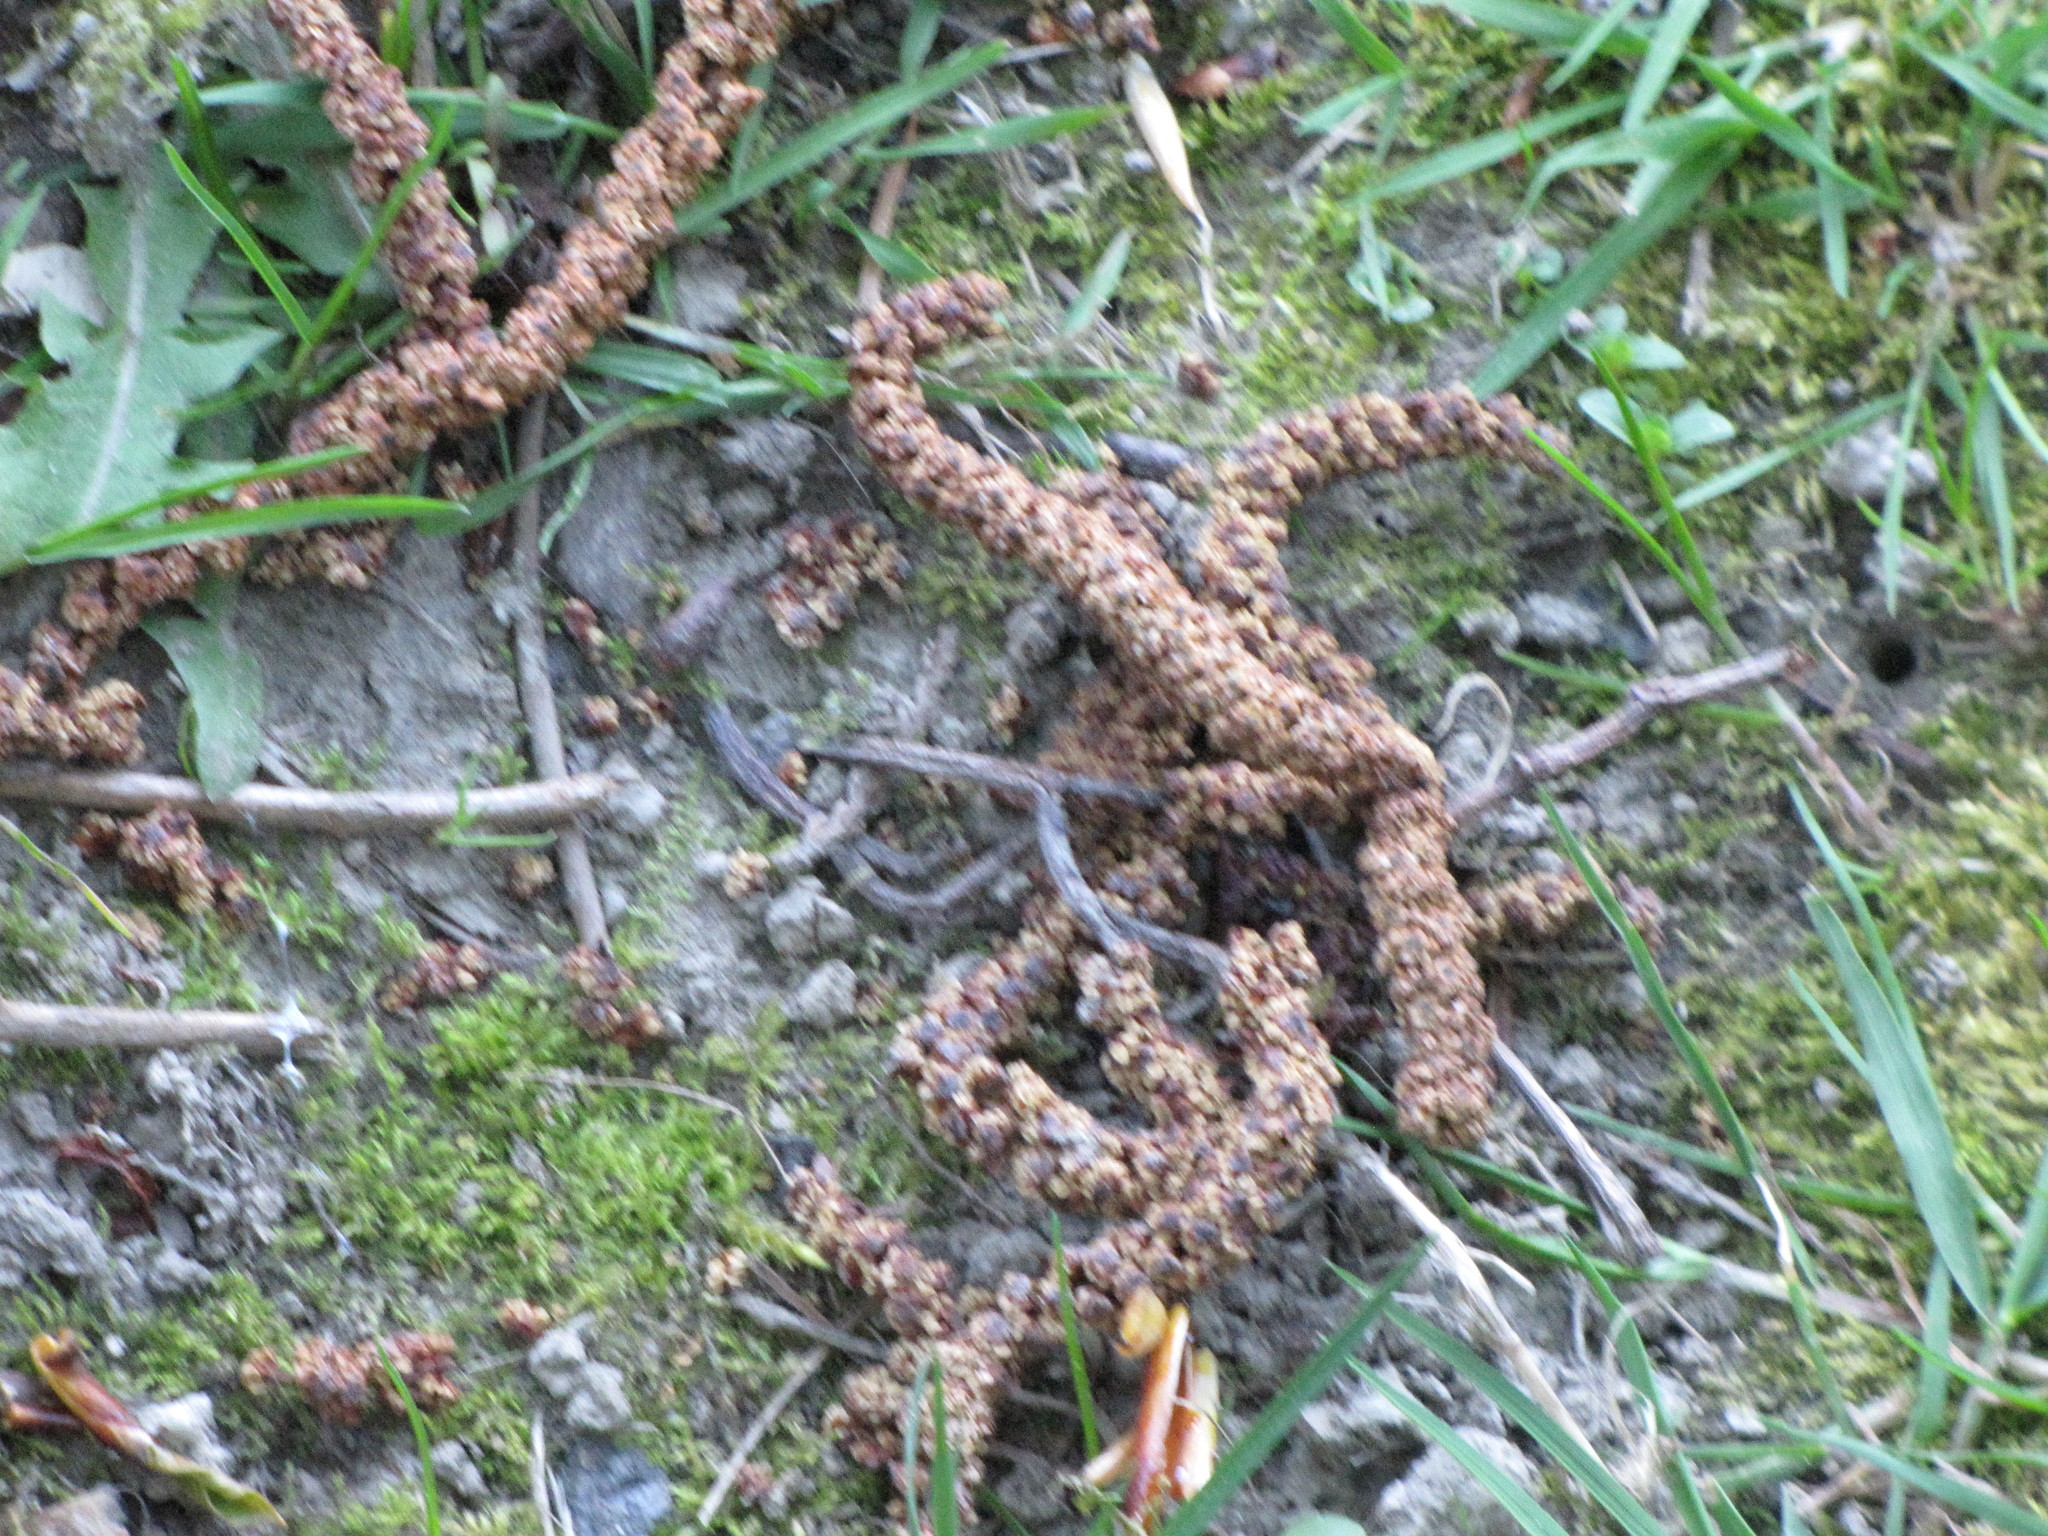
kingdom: Plantae
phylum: Tracheophyta
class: Magnoliopsida
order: Fagales
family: Betulaceae
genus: Alnus
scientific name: Alnus rubra
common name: Red alder
